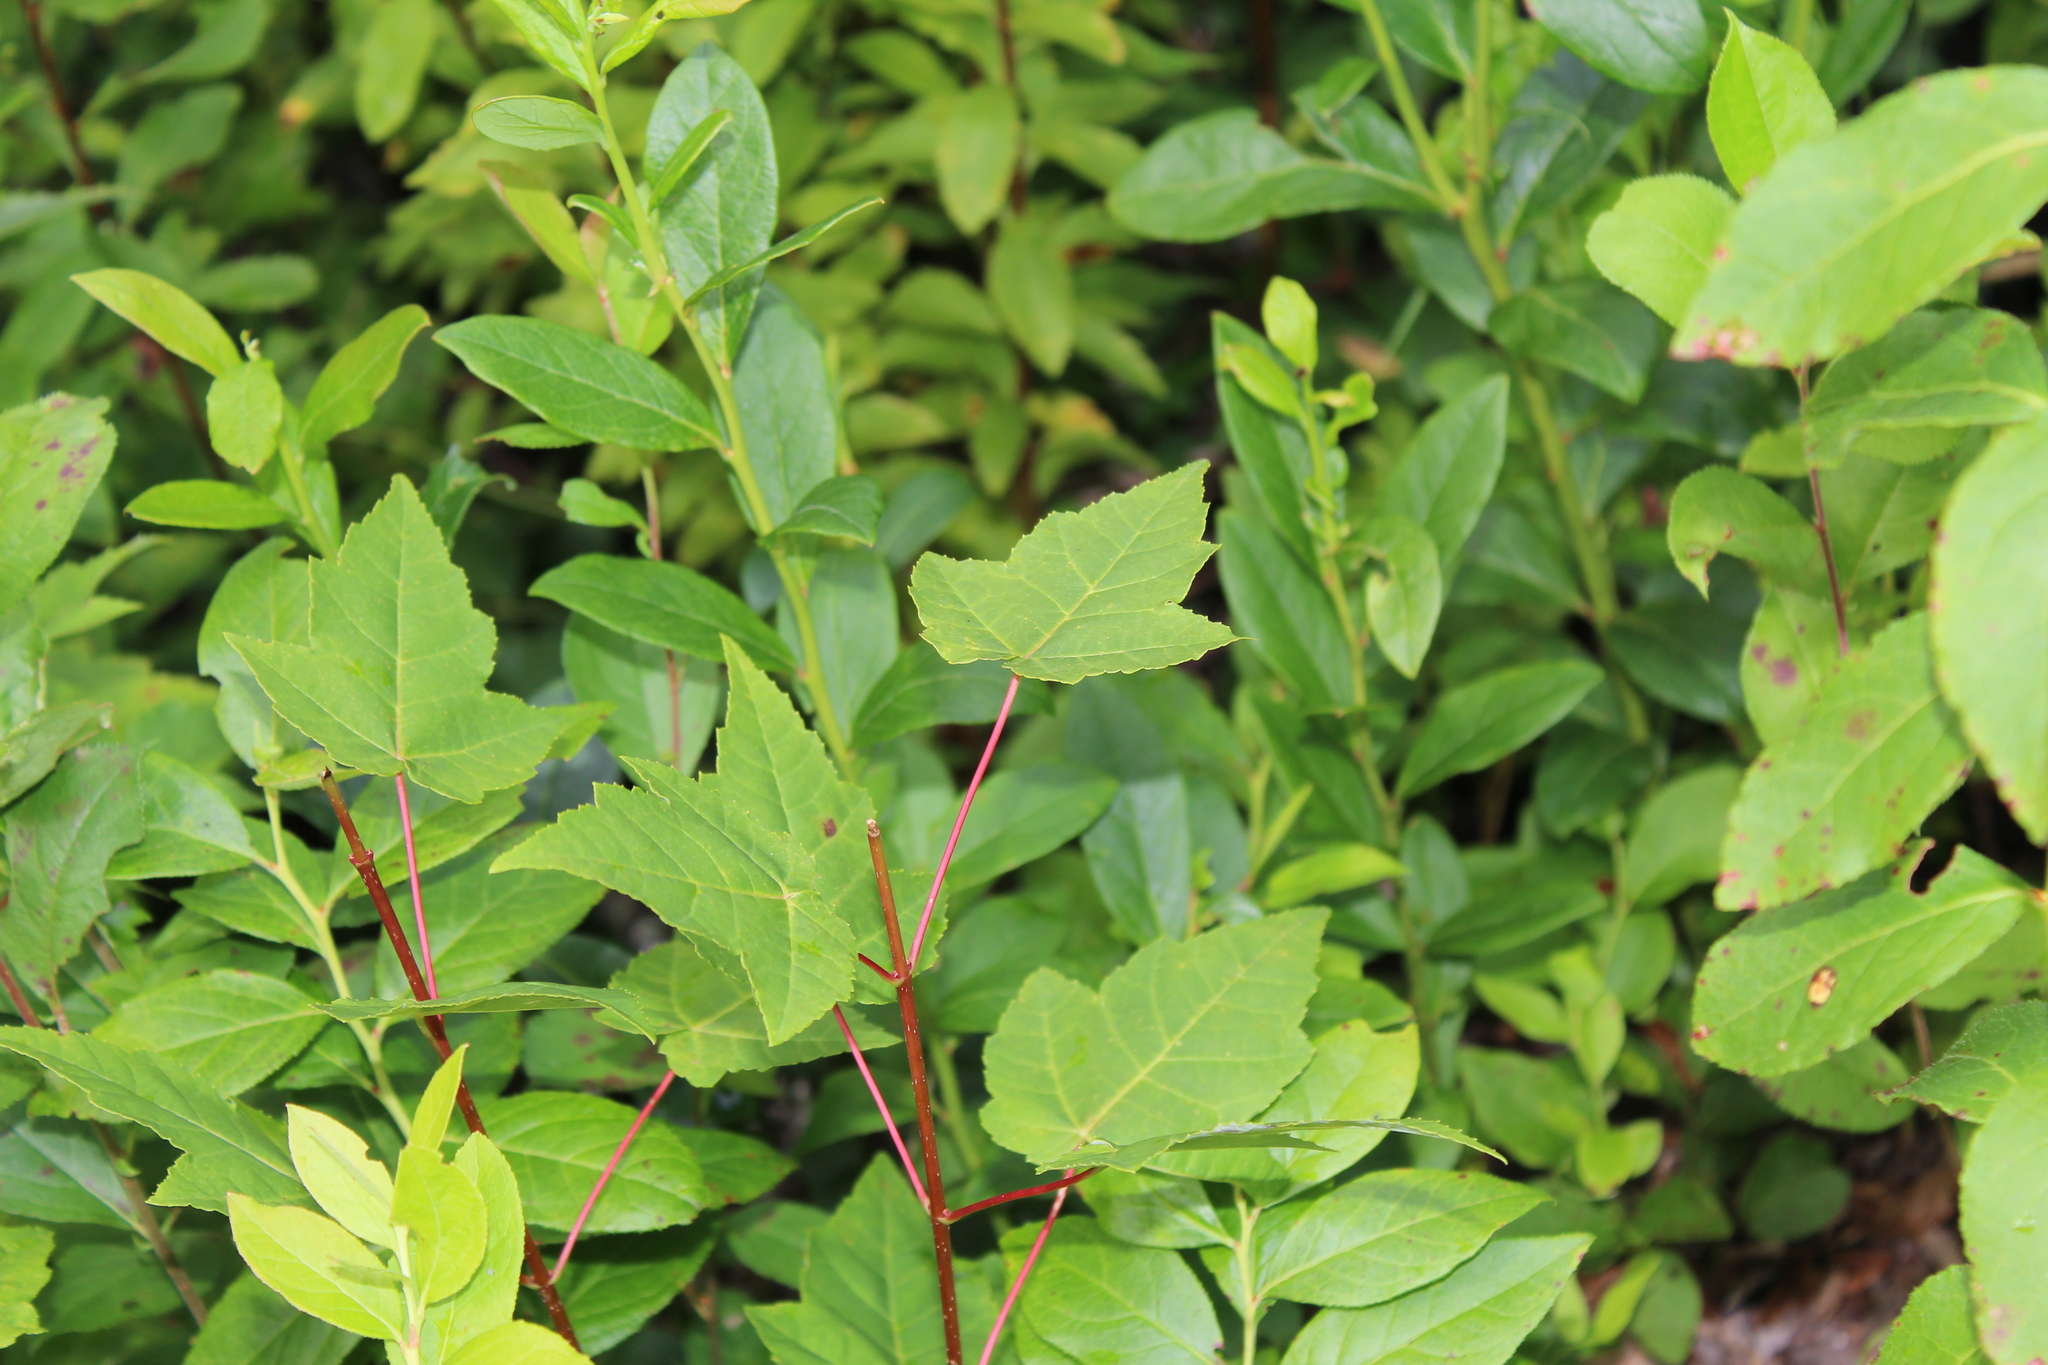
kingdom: Plantae
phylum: Tracheophyta
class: Magnoliopsida
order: Sapindales
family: Sapindaceae
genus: Acer
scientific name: Acer rubrum
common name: Red maple
